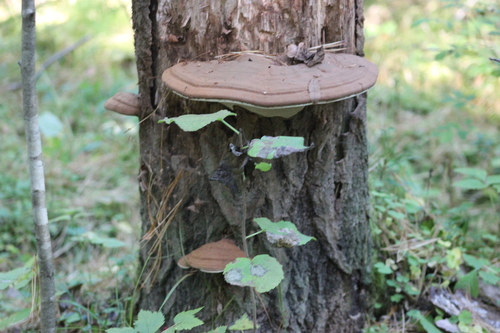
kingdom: Fungi
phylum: Basidiomycota
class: Agaricomycetes
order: Polyporales
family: Polyporaceae
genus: Ganoderma
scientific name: Ganoderma applanatum
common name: Artist's bracket
